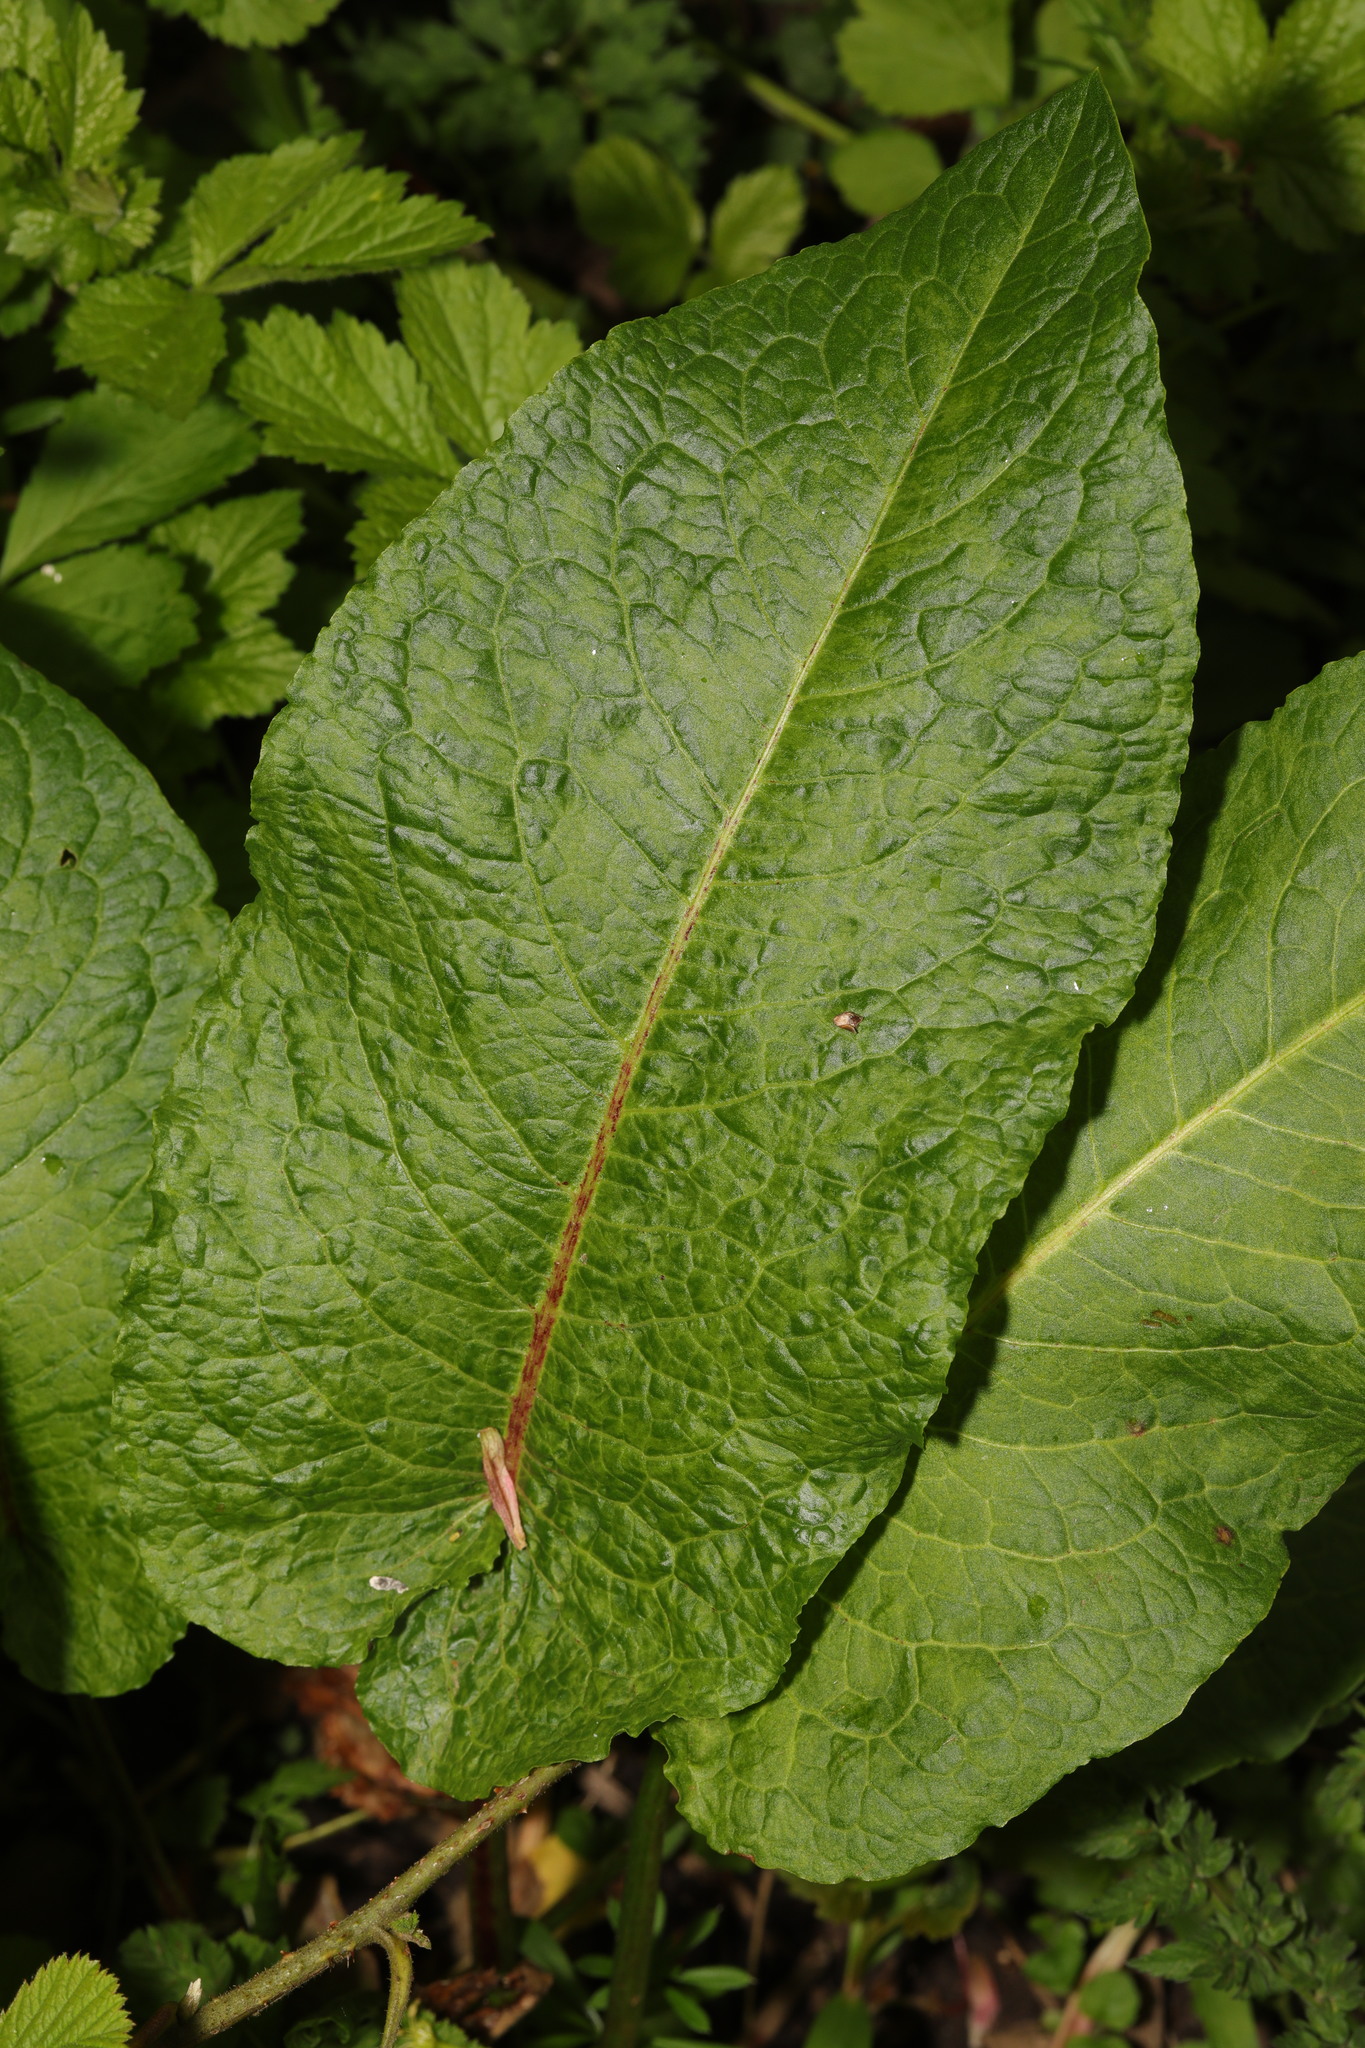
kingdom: Plantae
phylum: Tracheophyta
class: Magnoliopsida
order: Caryophyllales
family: Polygonaceae
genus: Rumex
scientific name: Rumex obtusifolius
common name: Bitter dock
